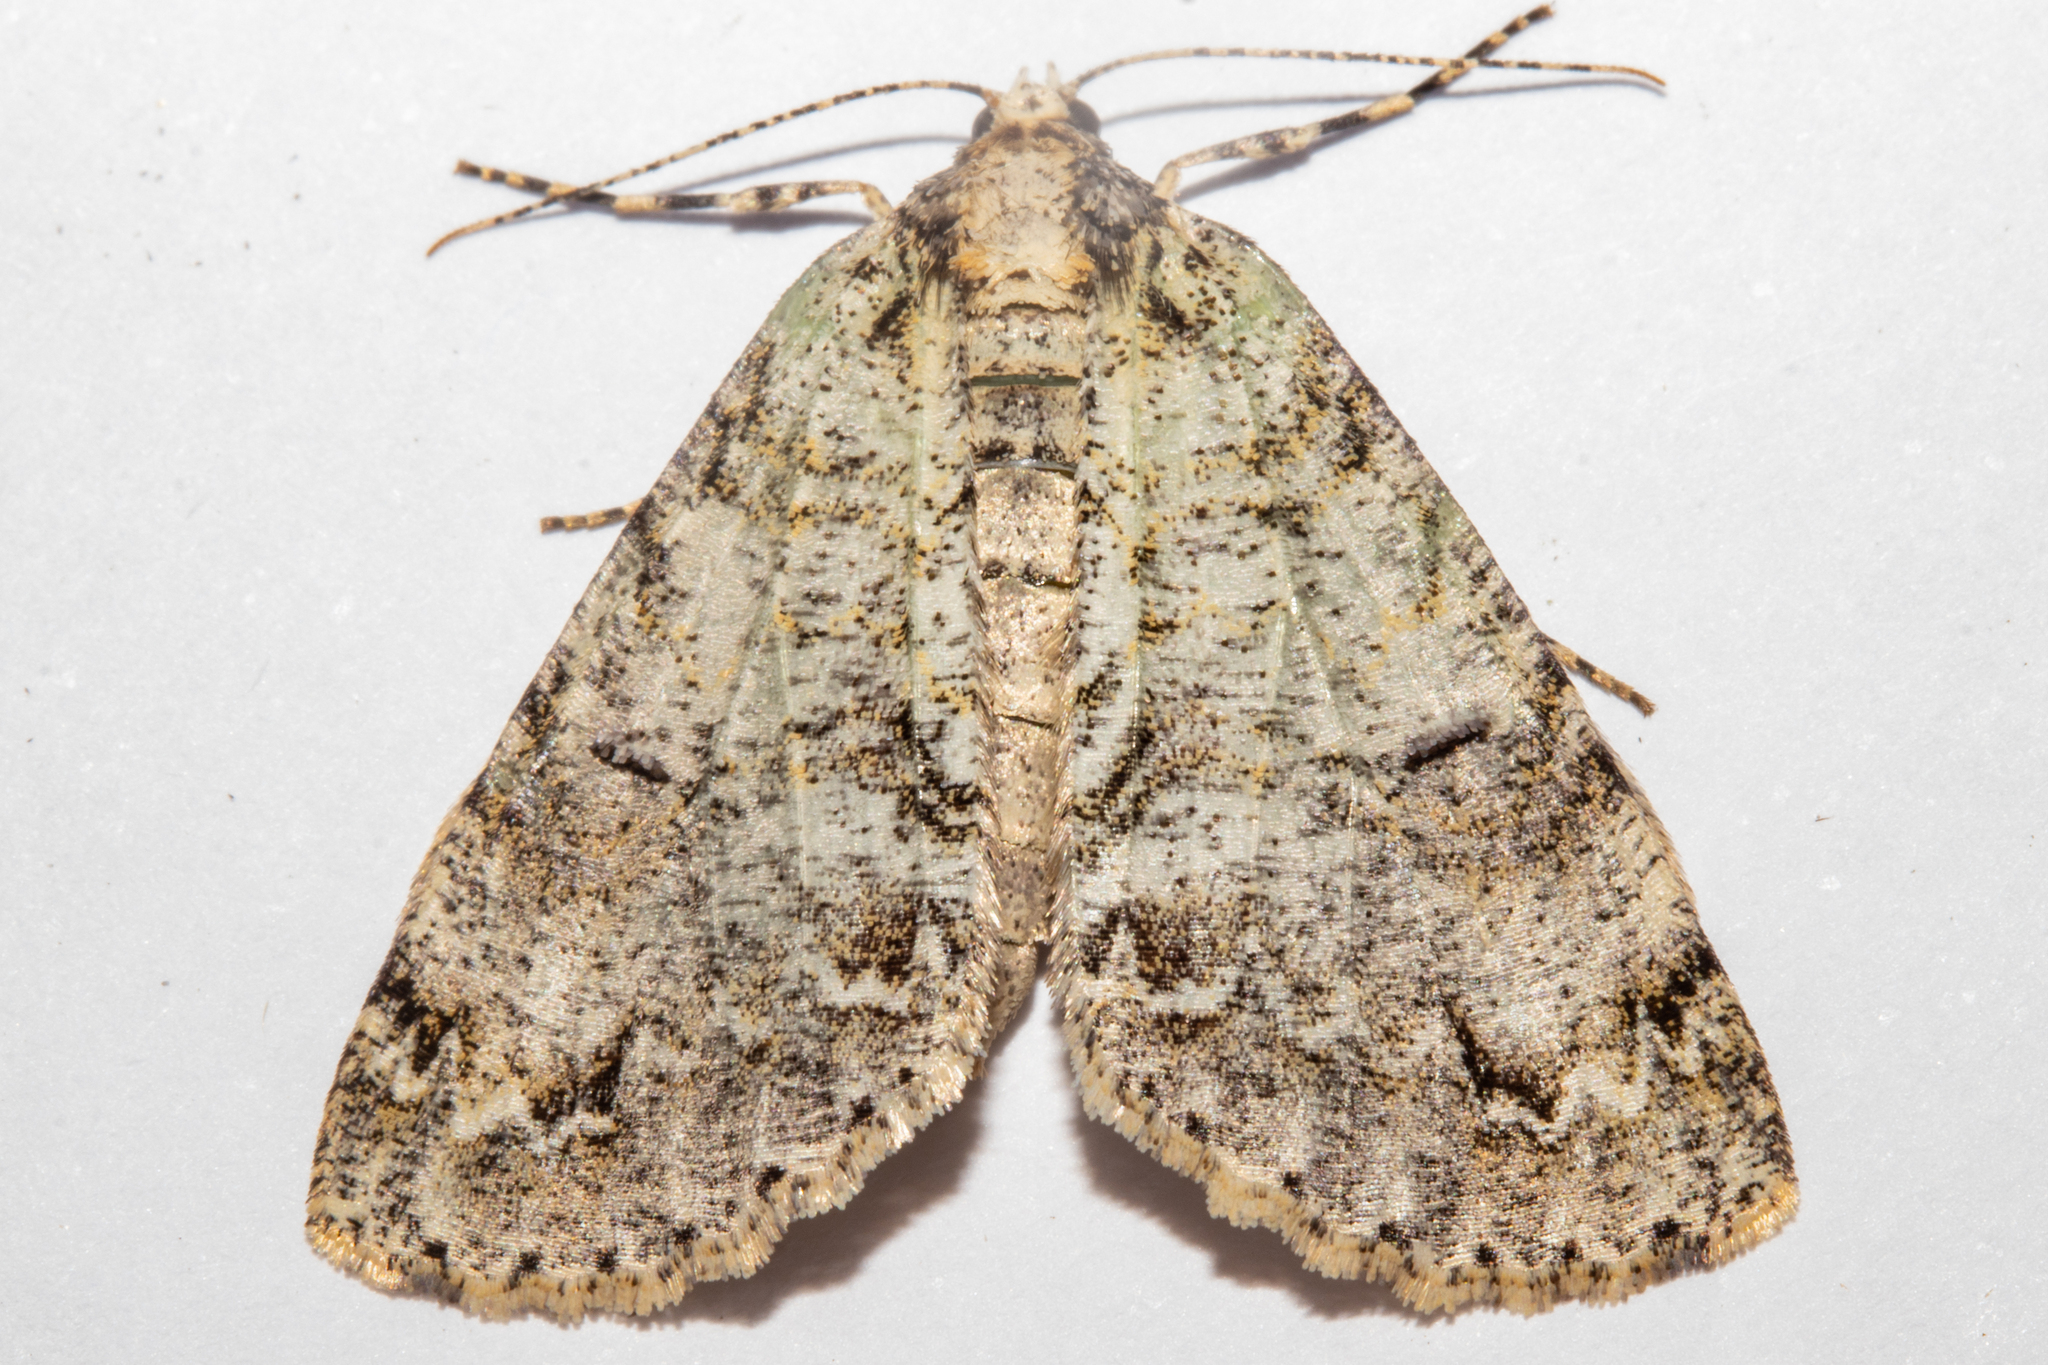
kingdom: Animalia
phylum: Arthropoda
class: Insecta
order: Lepidoptera
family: Geometridae
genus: Pseudocoremia
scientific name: Pseudocoremia suavis
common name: Common forest looper
